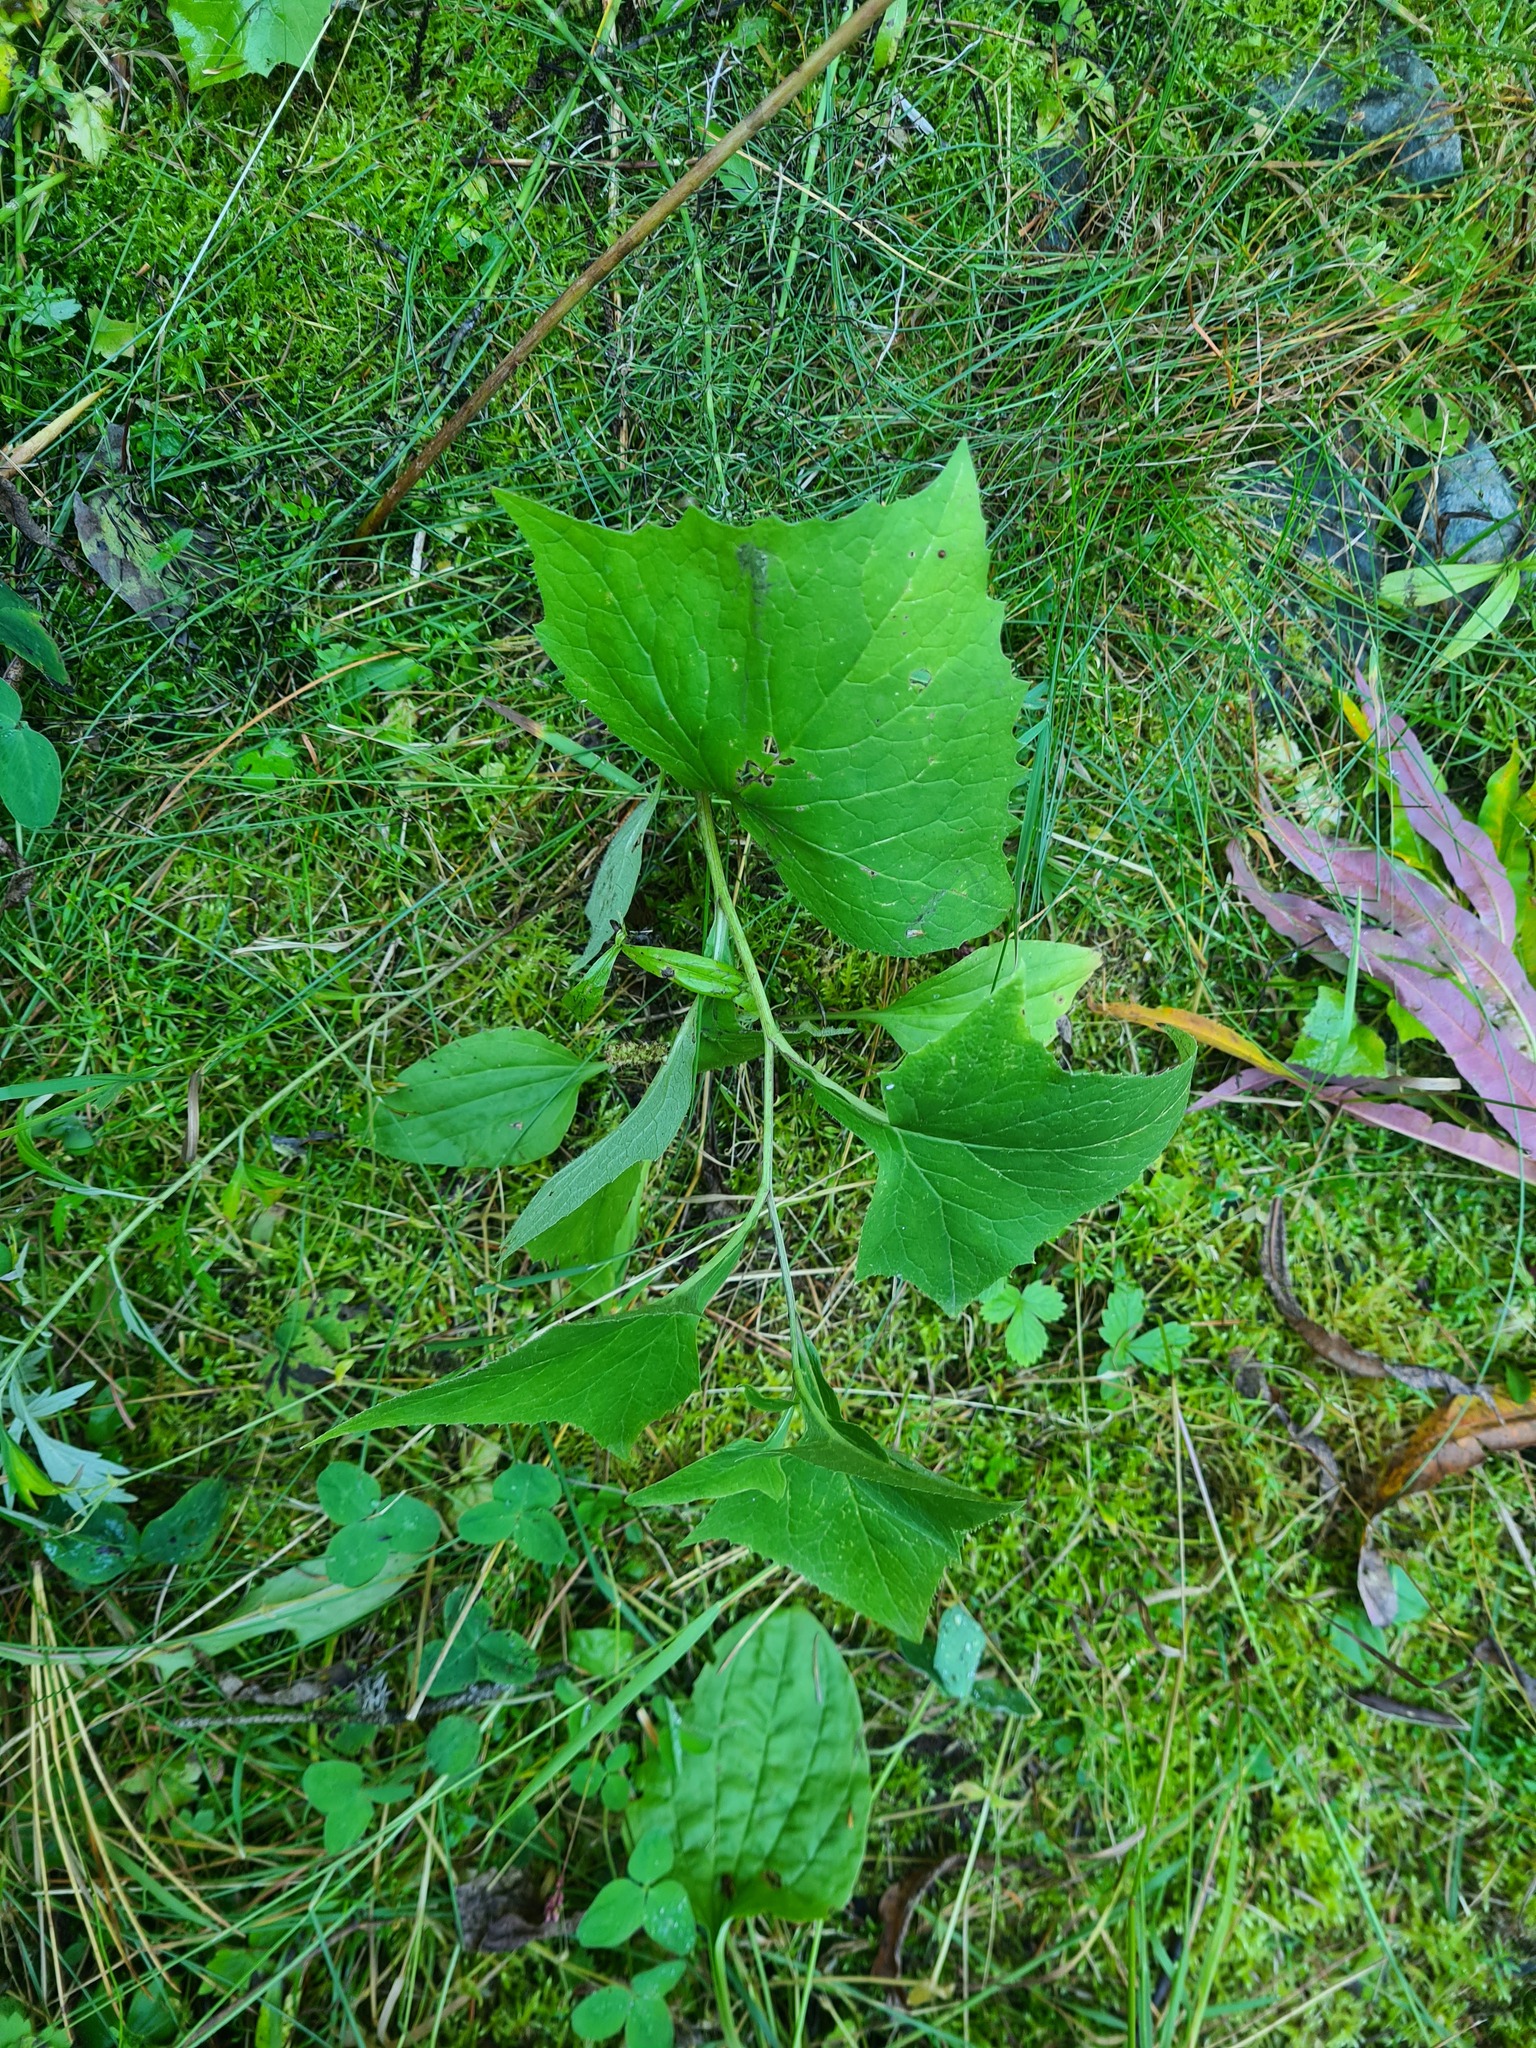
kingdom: Plantae
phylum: Tracheophyta
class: Magnoliopsida
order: Asterales
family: Asteraceae
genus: Parasenecio
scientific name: Parasenecio hastatus
